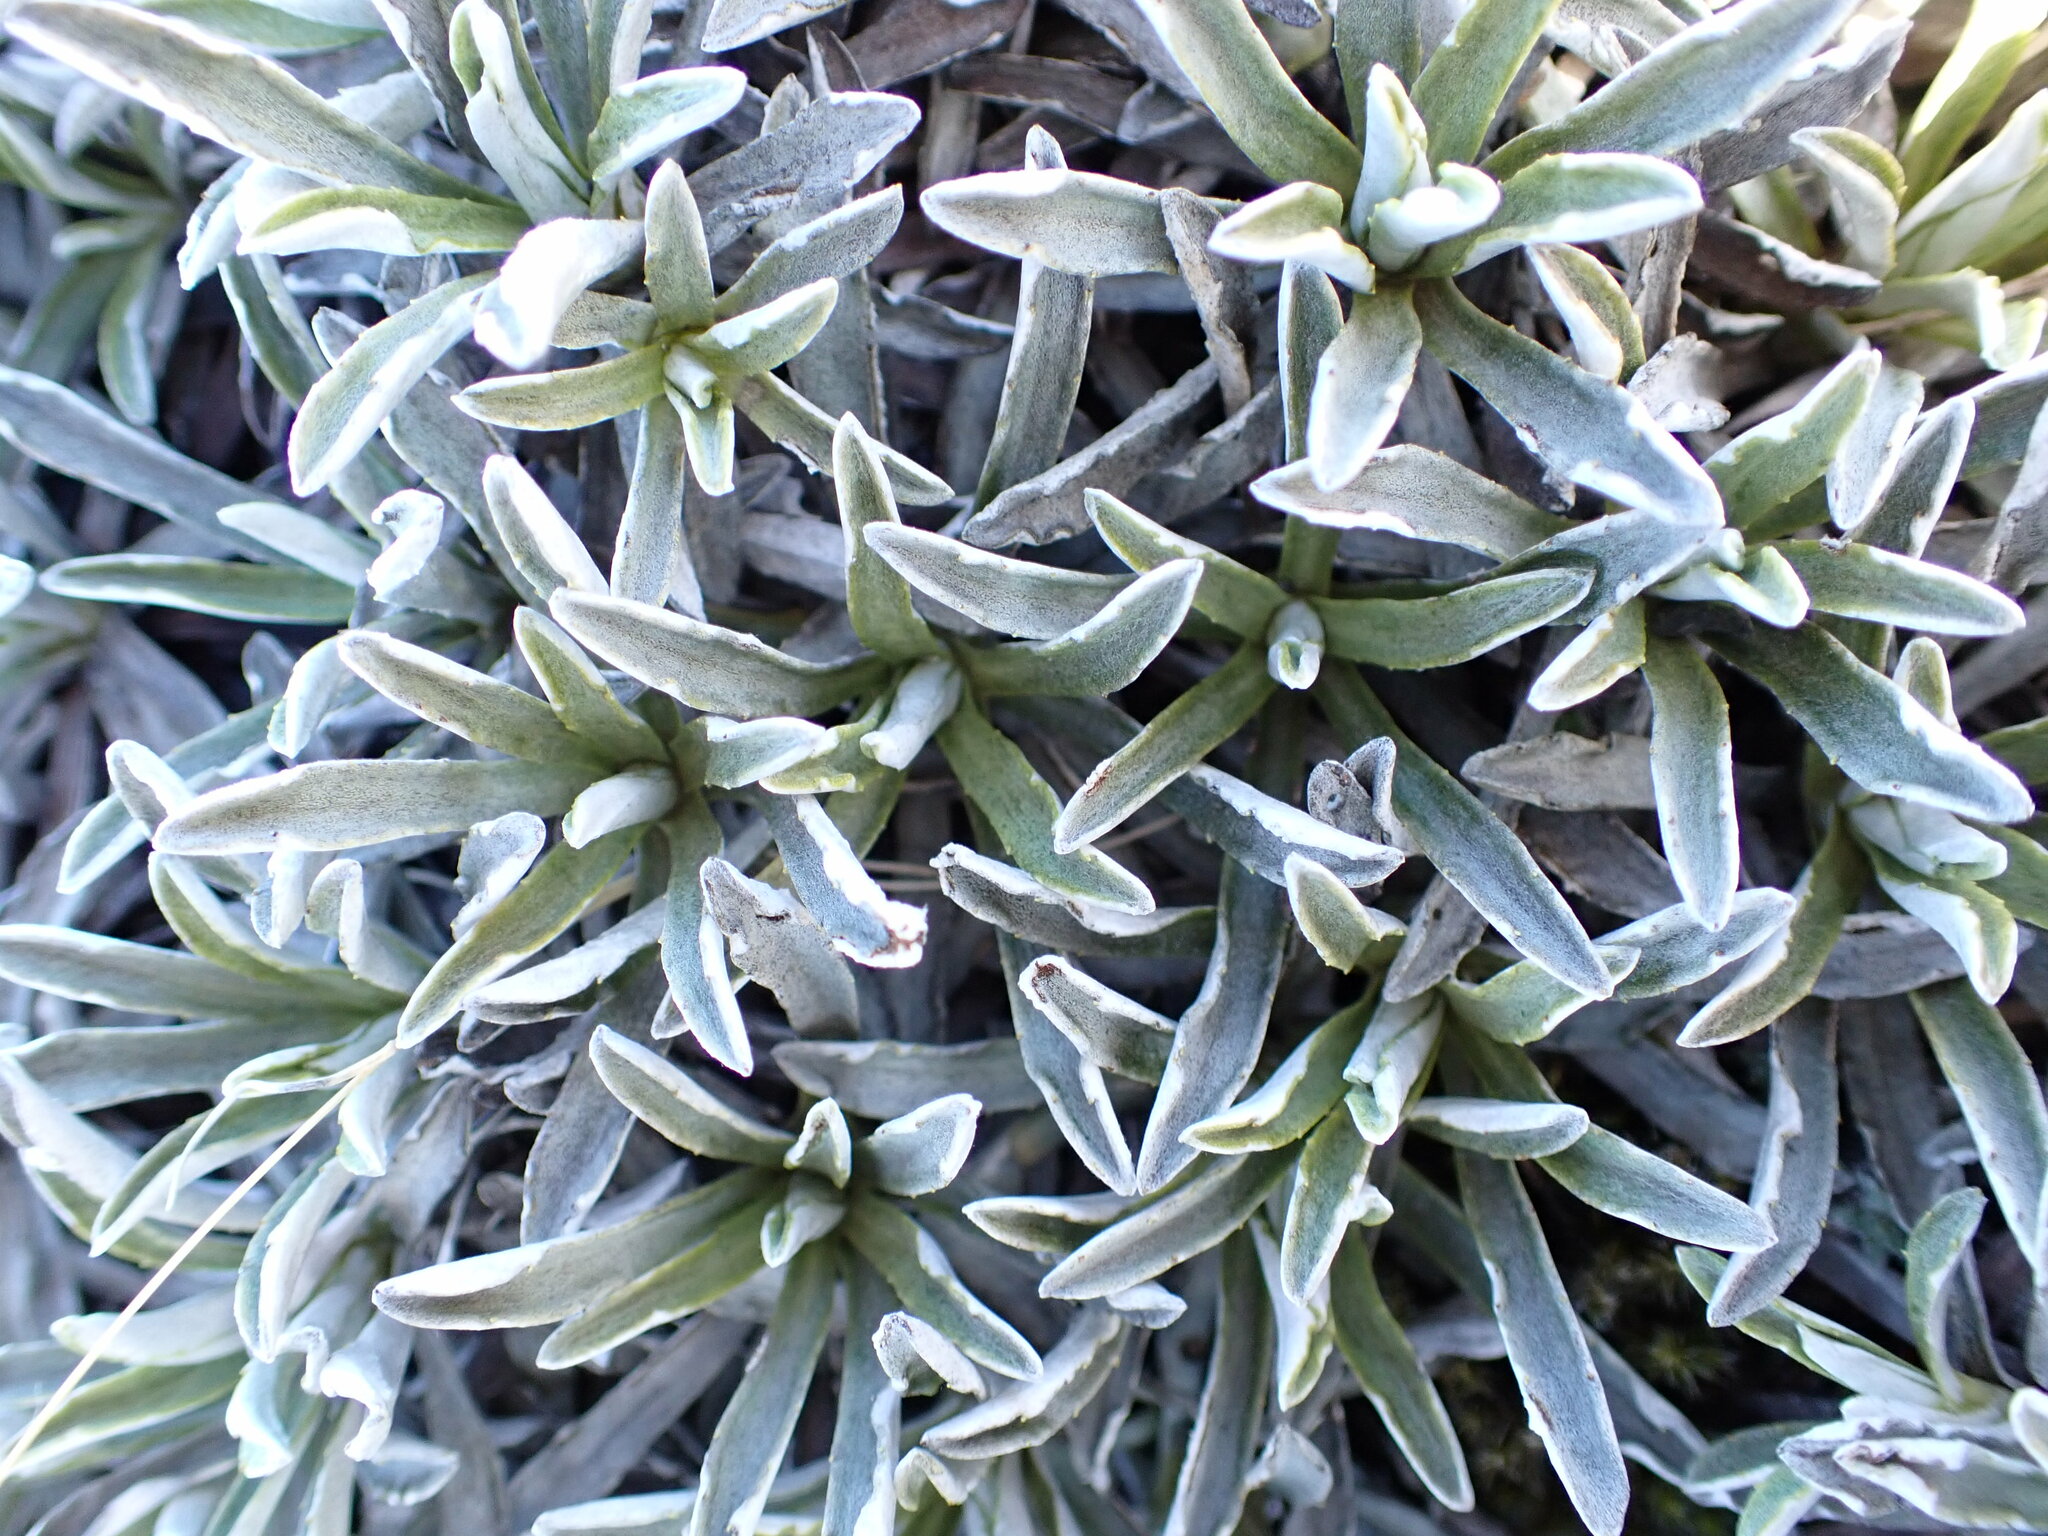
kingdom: Plantae
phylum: Tracheophyta
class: Magnoliopsida
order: Asterales
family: Asteraceae
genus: Celmisia
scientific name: Celmisia angustifolia
